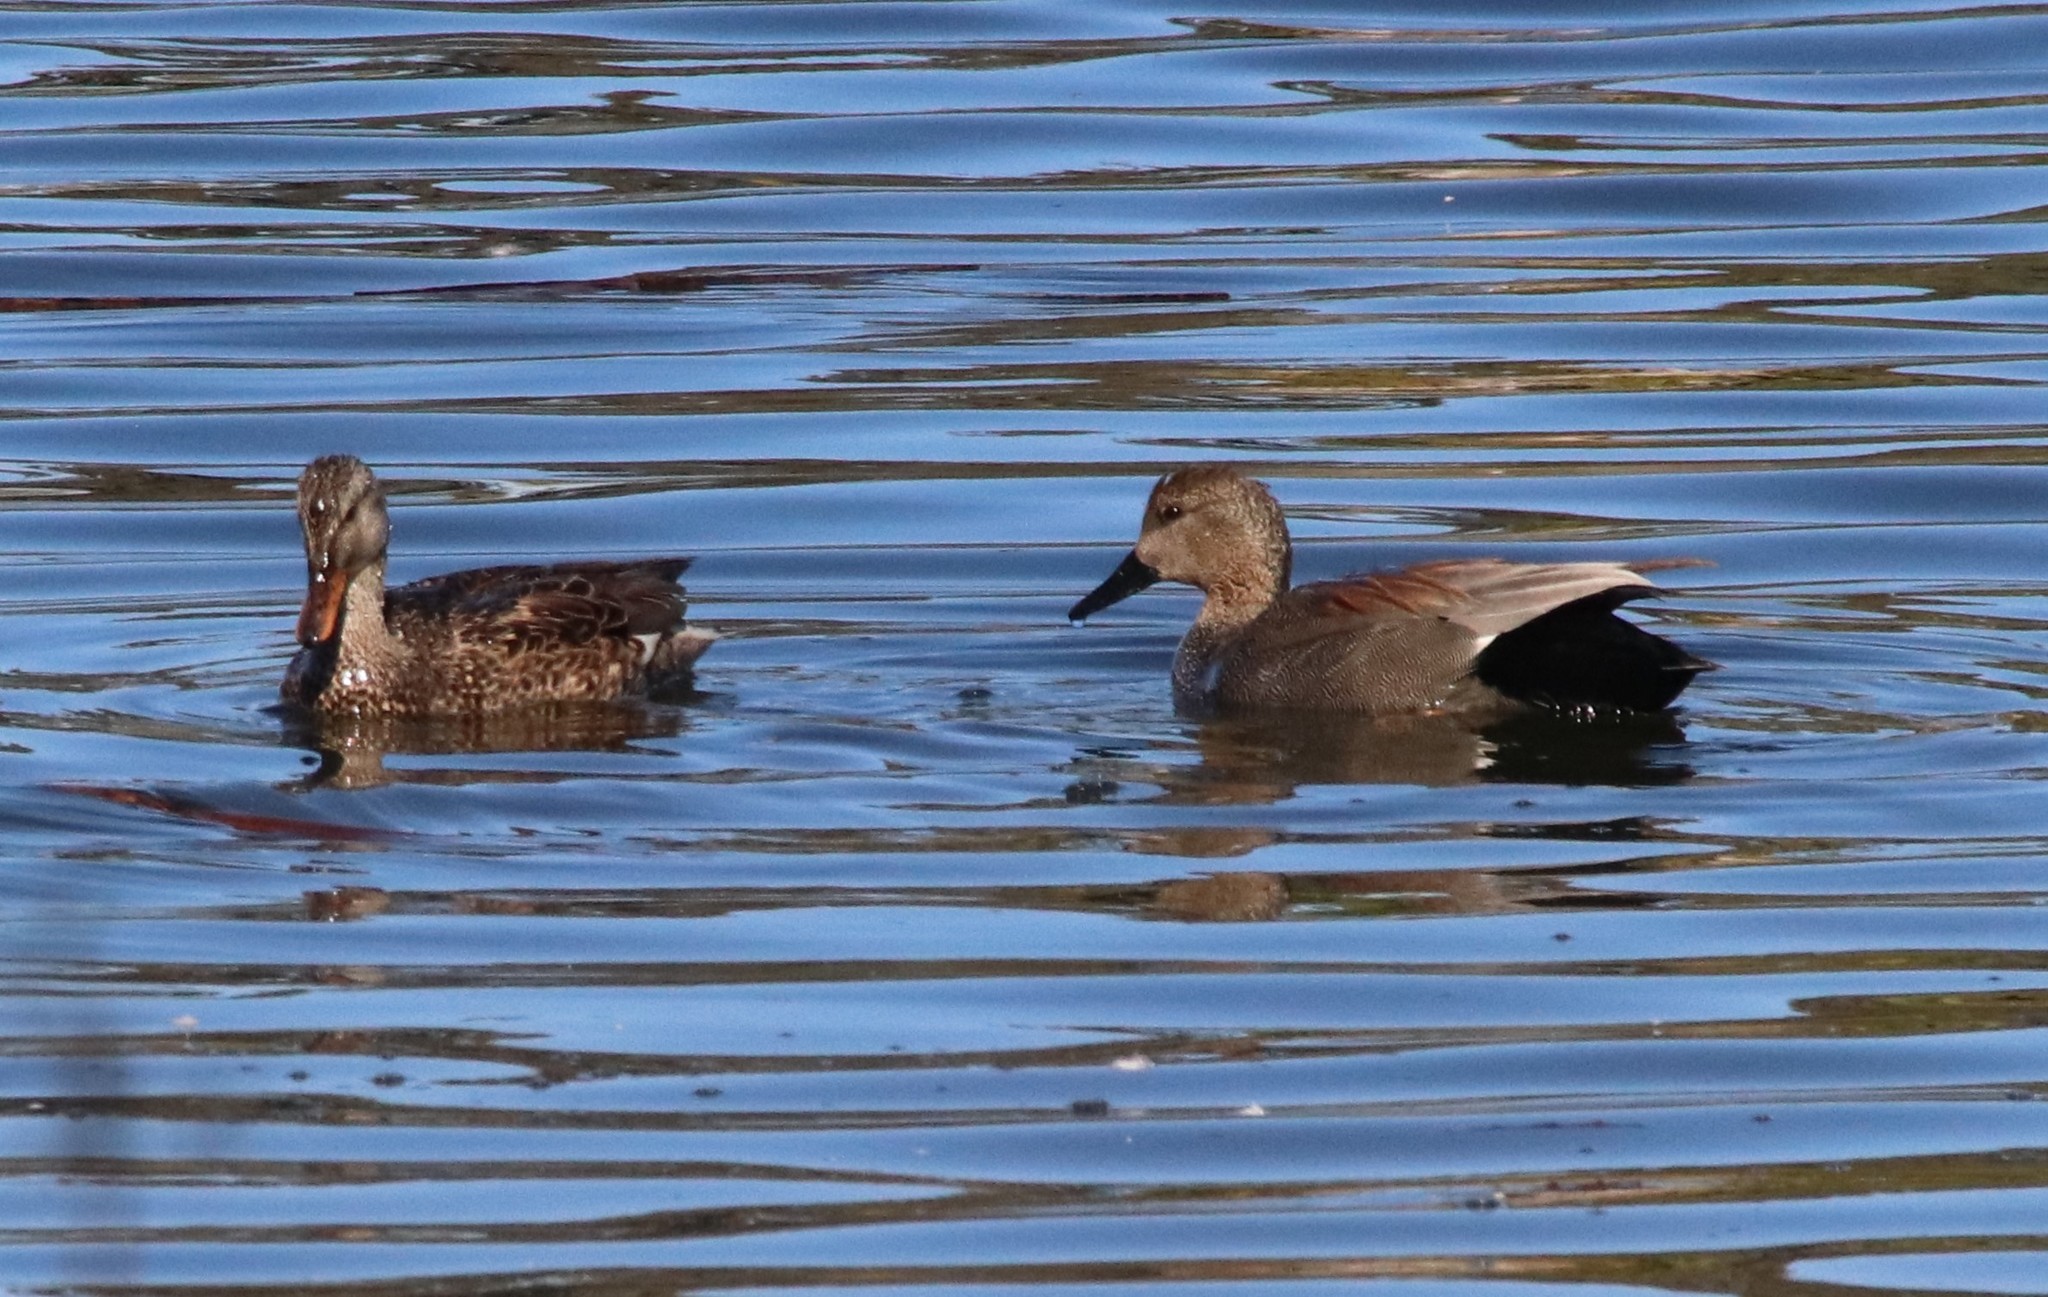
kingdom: Animalia
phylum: Chordata
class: Aves
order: Anseriformes
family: Anatidae
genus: Mareca
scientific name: Mareca strepera
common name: Gadwall
